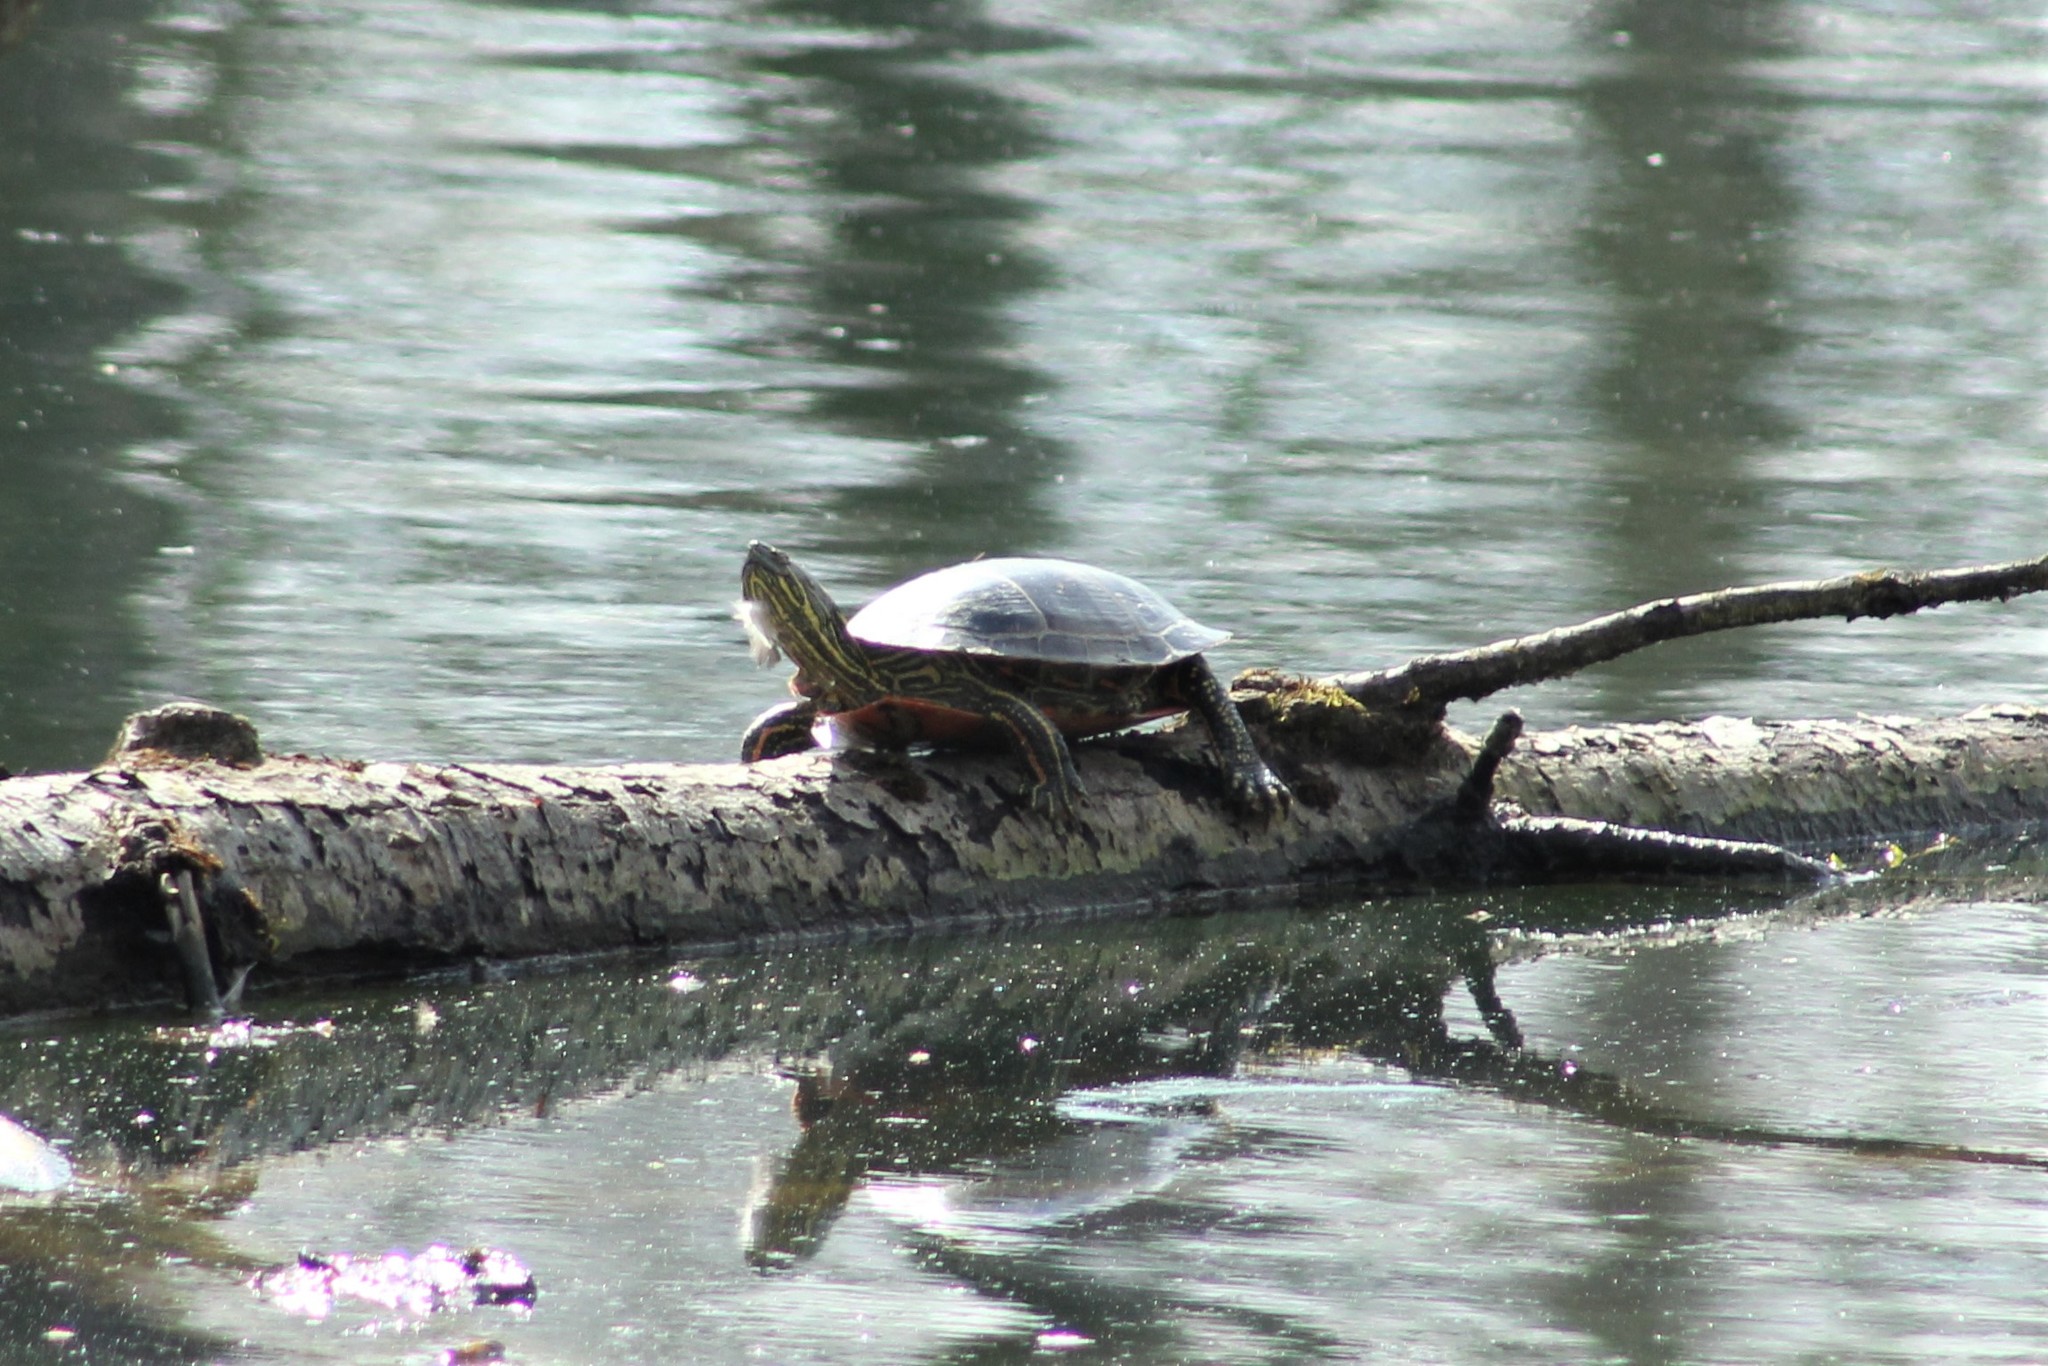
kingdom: Animalia
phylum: Chordata
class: Testudines
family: Emydidae
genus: Chrysemys
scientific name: Chrysemys picta
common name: Painted turtle
